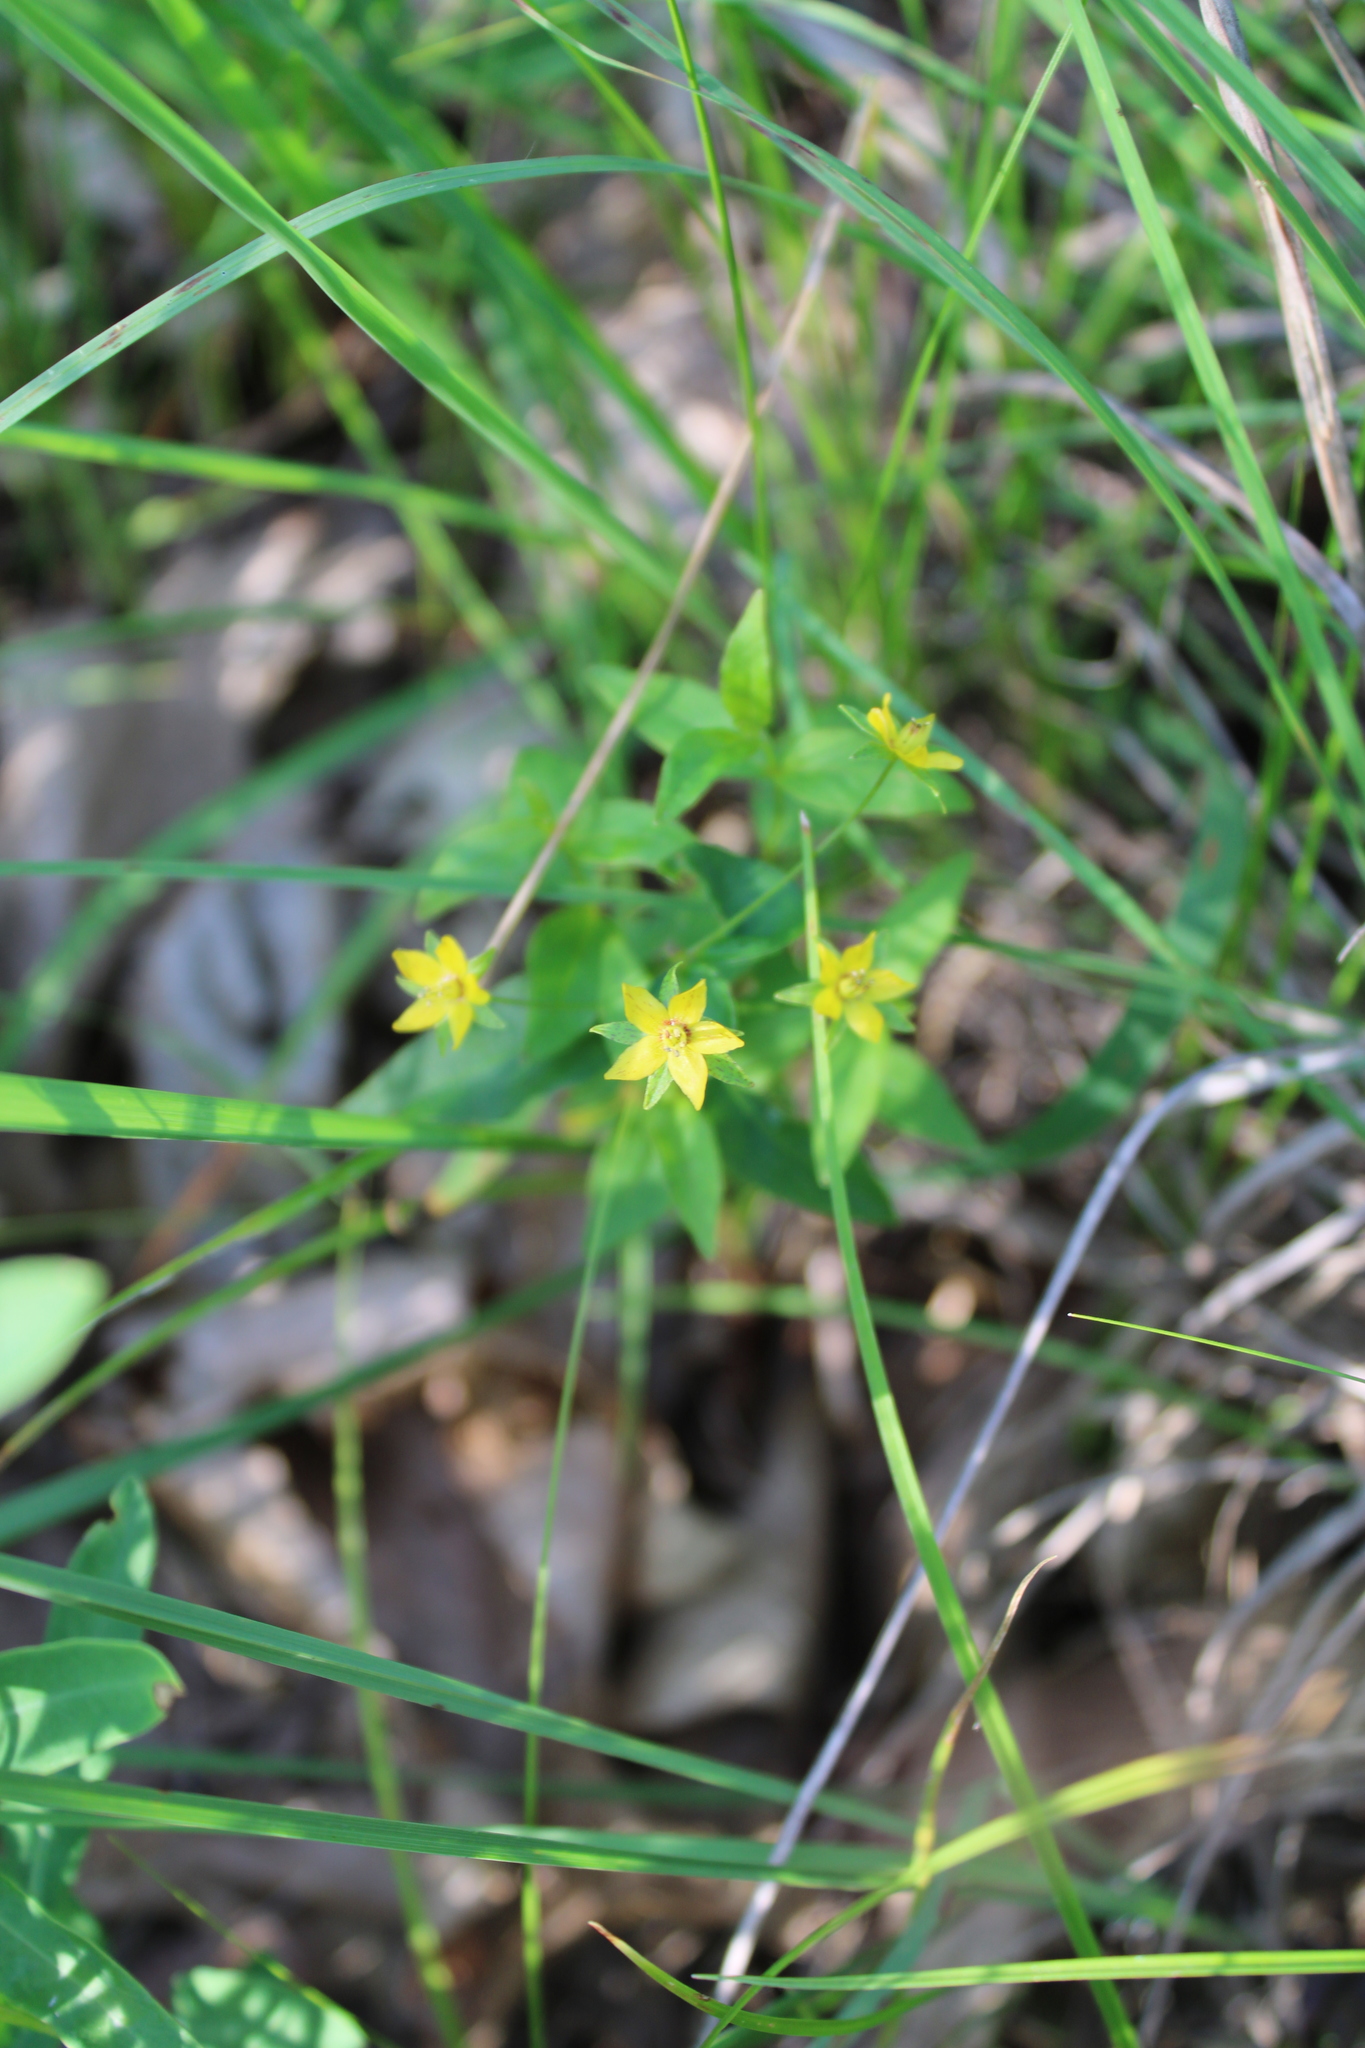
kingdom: Plantae
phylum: Tracheophyta
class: Magnoliopsida
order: Ericales
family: Primulaceae
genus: Lysimachia
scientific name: Lysimachia quadrifolia
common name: Whorled loosestrife
